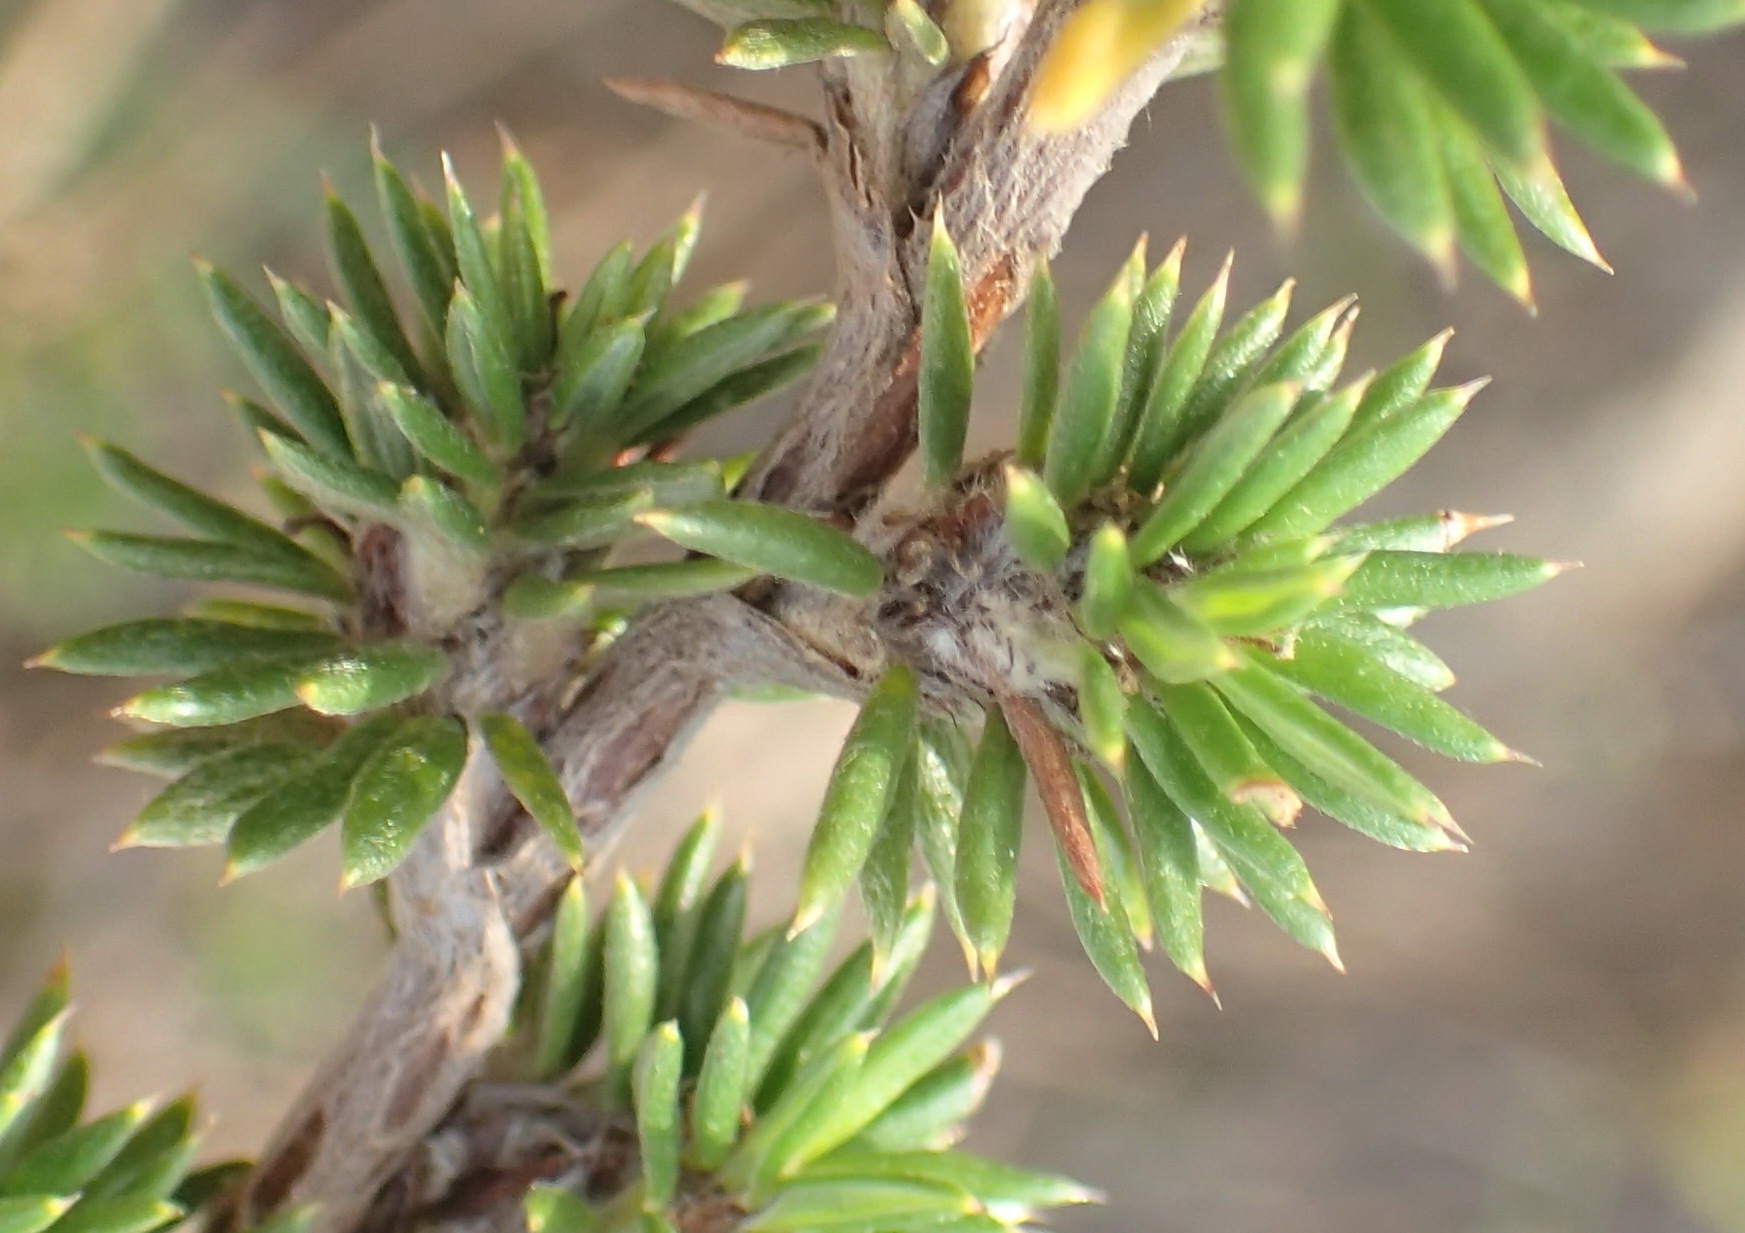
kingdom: Plantae
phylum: Tracheophyta
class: Magnoliopsida
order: Rosales
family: Rosaceae
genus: Cliffortia
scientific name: Cliffortia stricta
